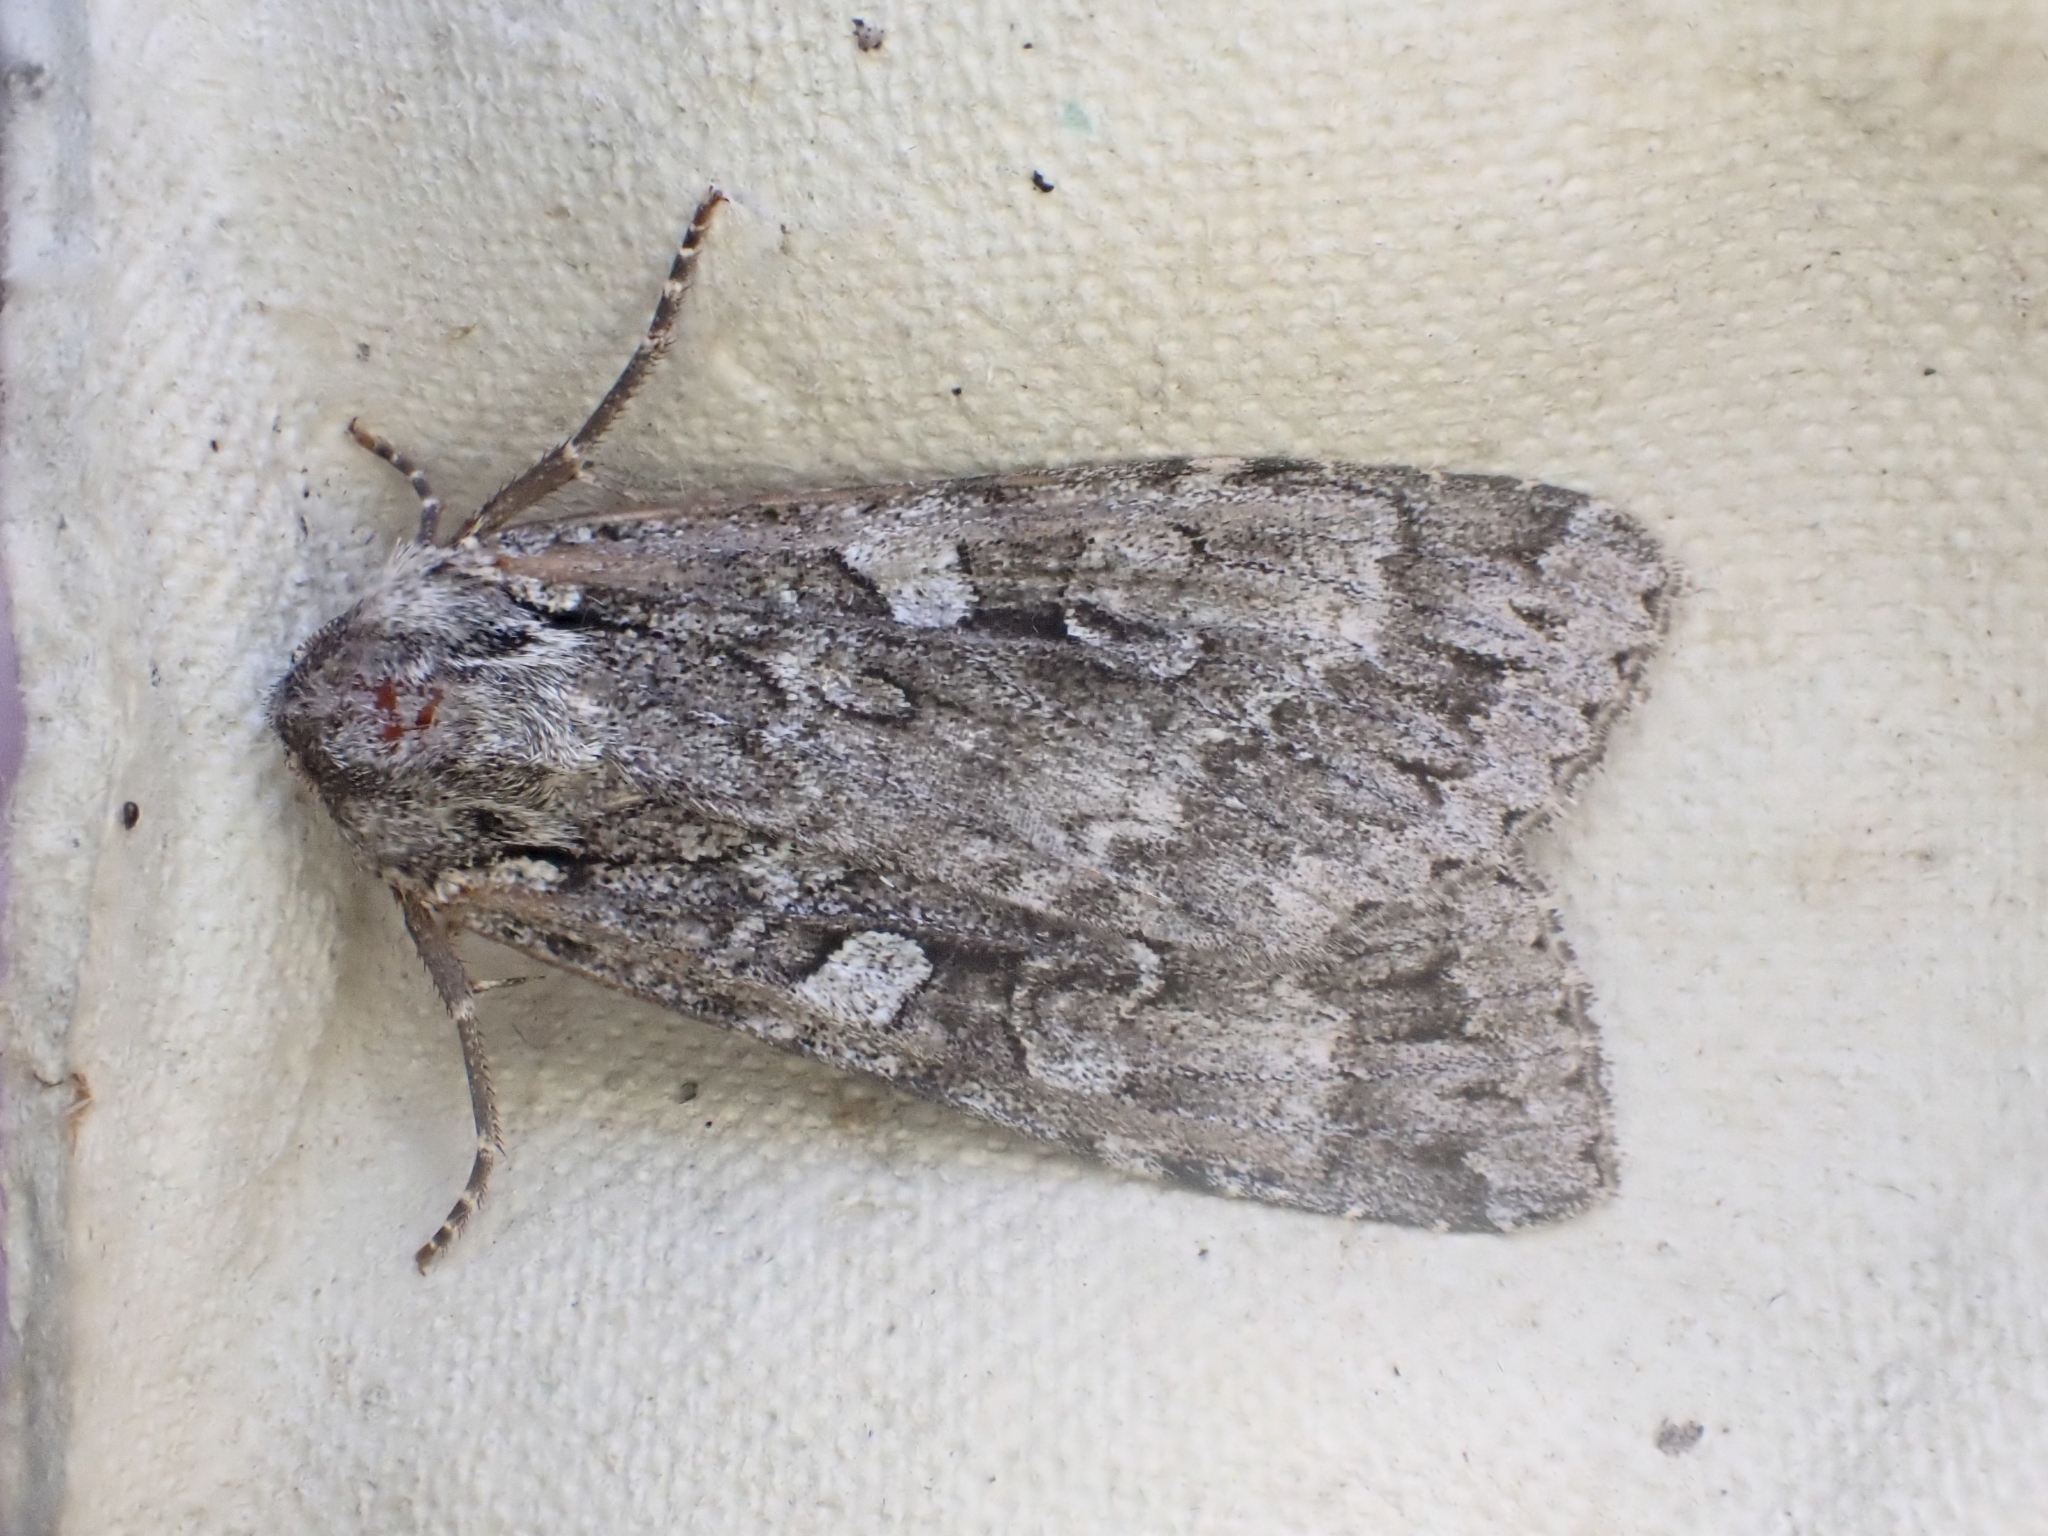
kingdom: Animalia
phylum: Arthropoda
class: Insecta
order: Lepidoptera
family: Noctuidae
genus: Eurois
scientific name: Eurois occulta
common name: Great brocade
